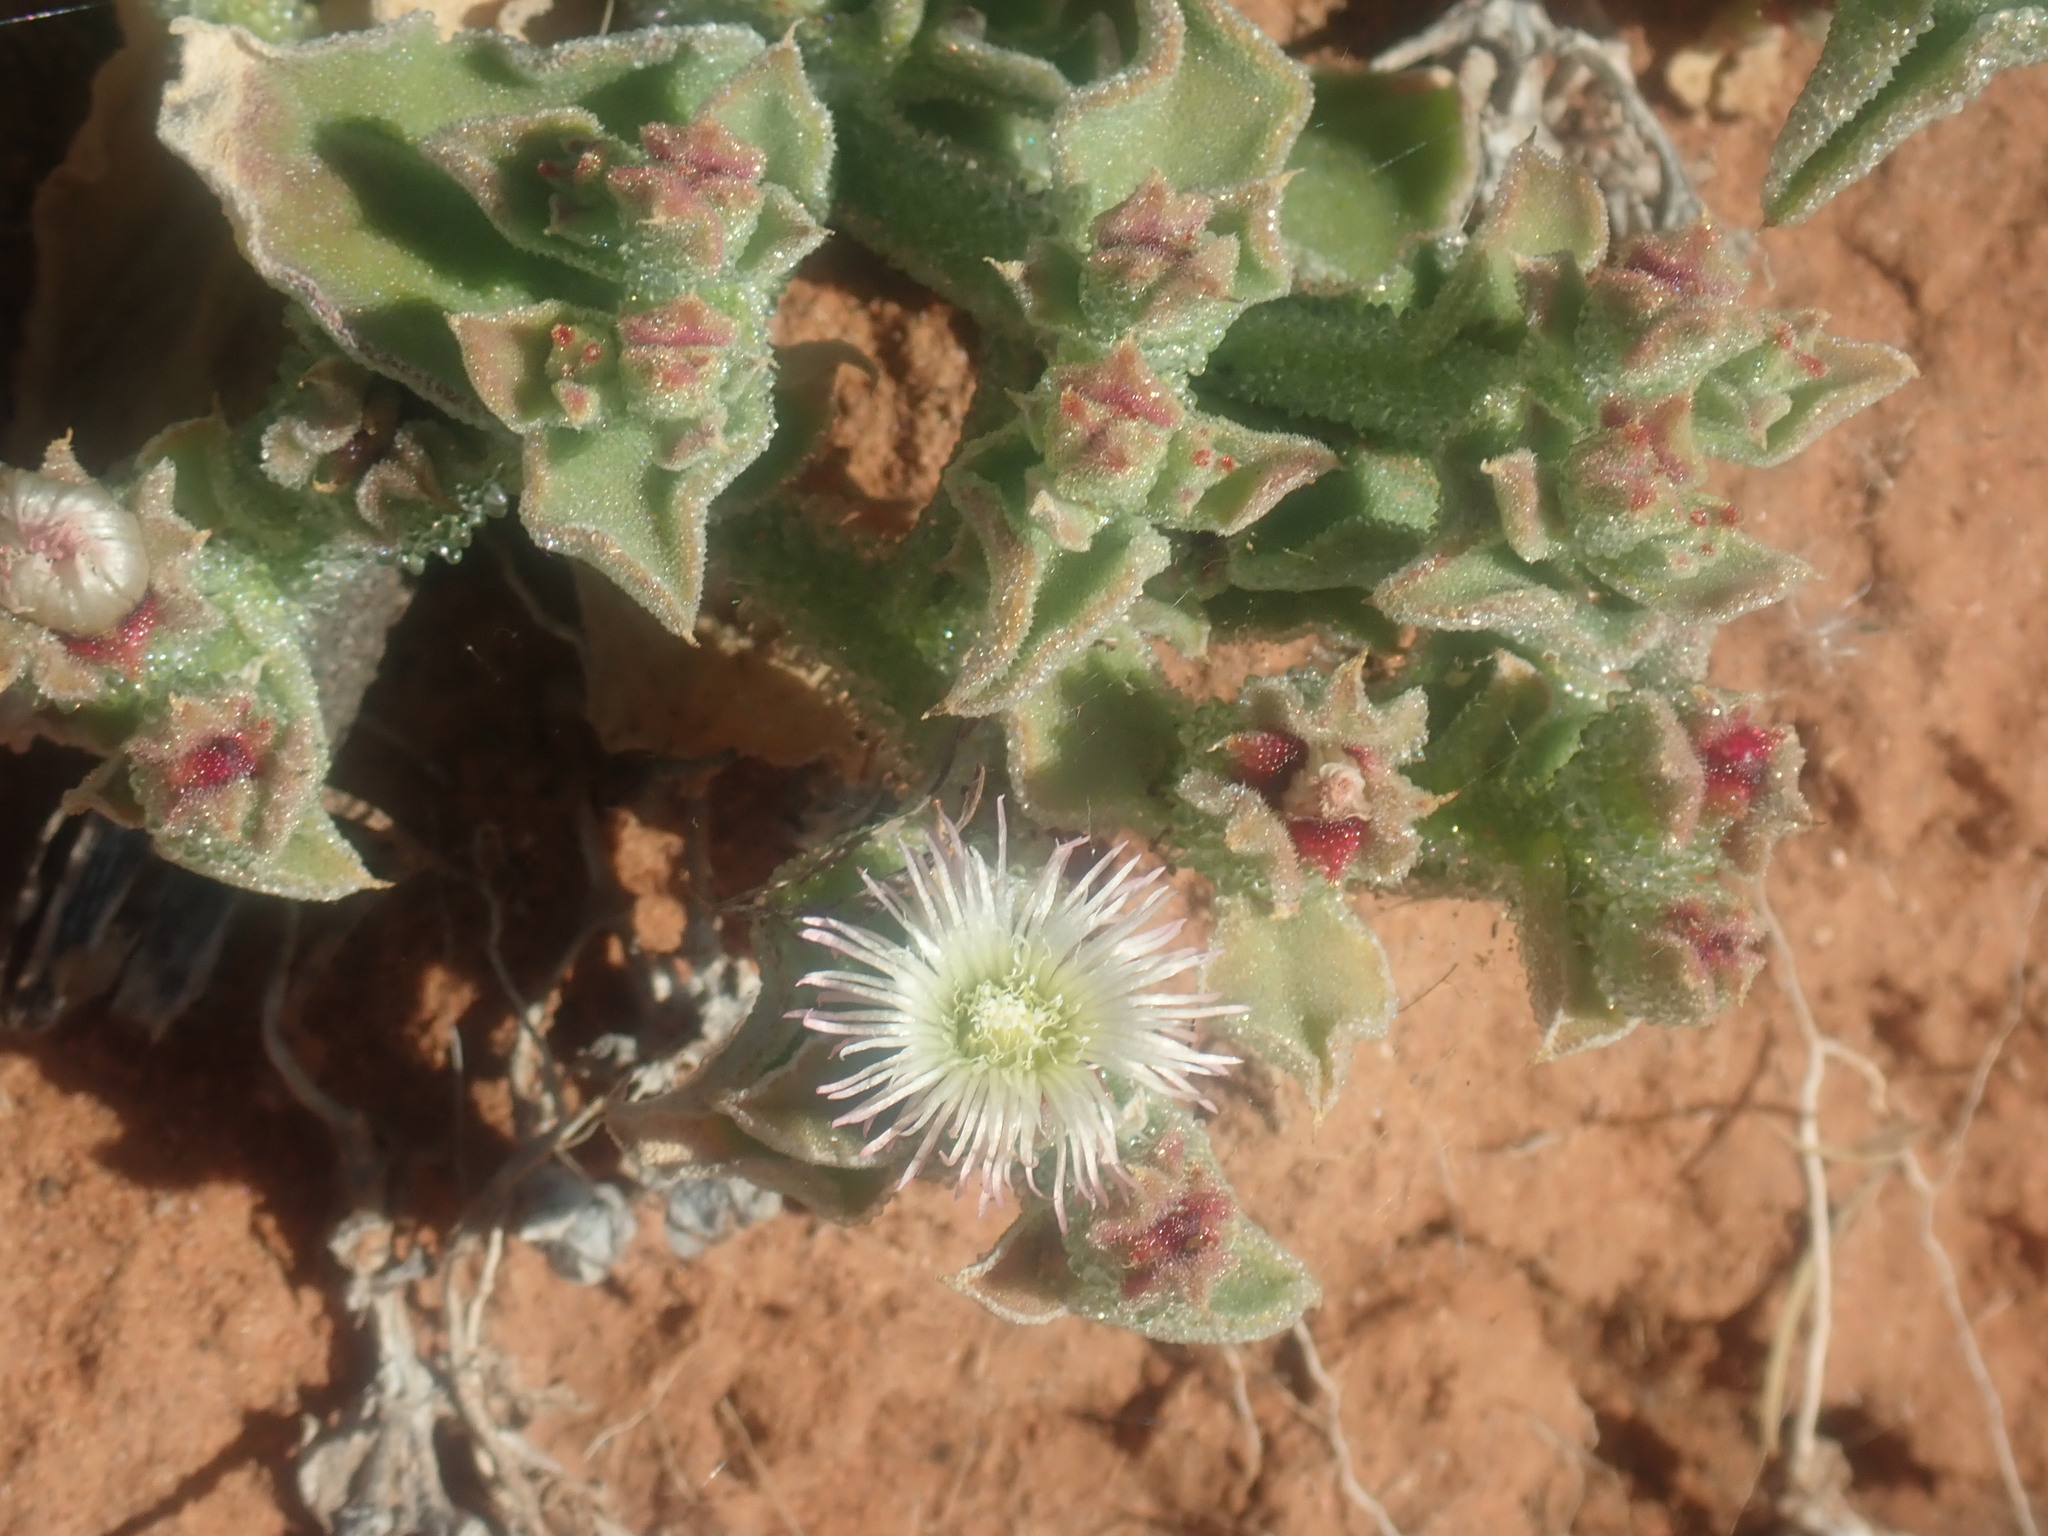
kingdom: Plantae
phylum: Tracheophyta
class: Magnoliopsida
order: Caryophyllales
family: Aizoaceae
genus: Mesembryanthemum
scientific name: Mesembryanthemum crystallinum
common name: Common iceplant
